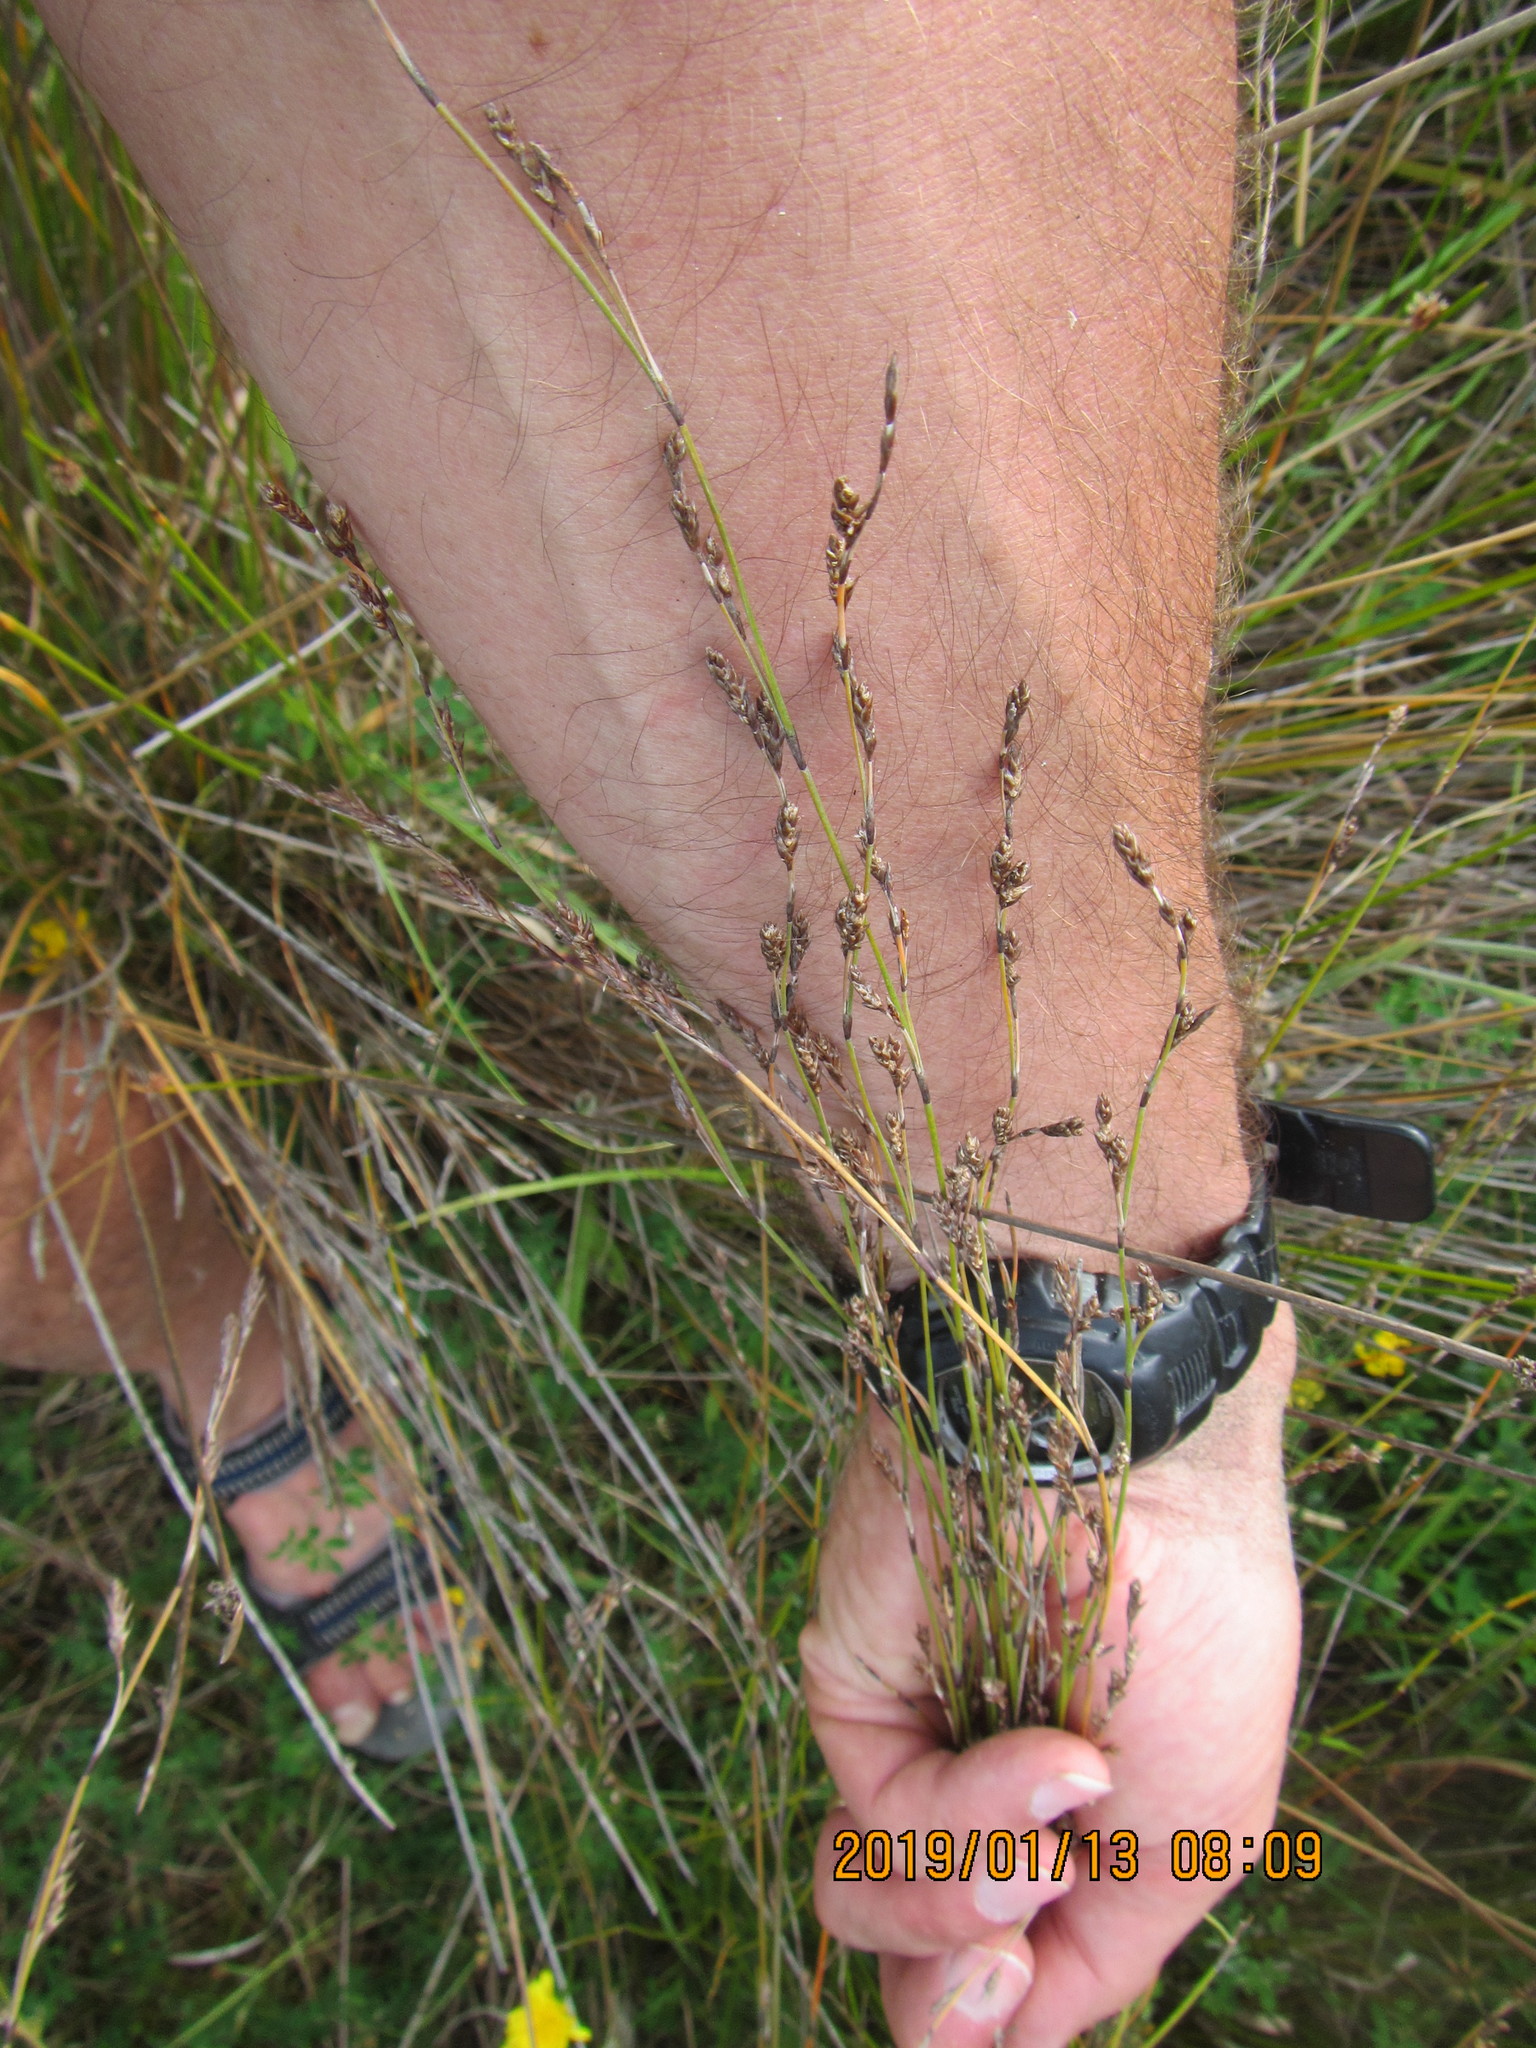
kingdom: Plantae
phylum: Tracheophyta
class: Liliopsida
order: Poales
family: Restionaceae
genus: Apodasmia
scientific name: Apodasmia similis
